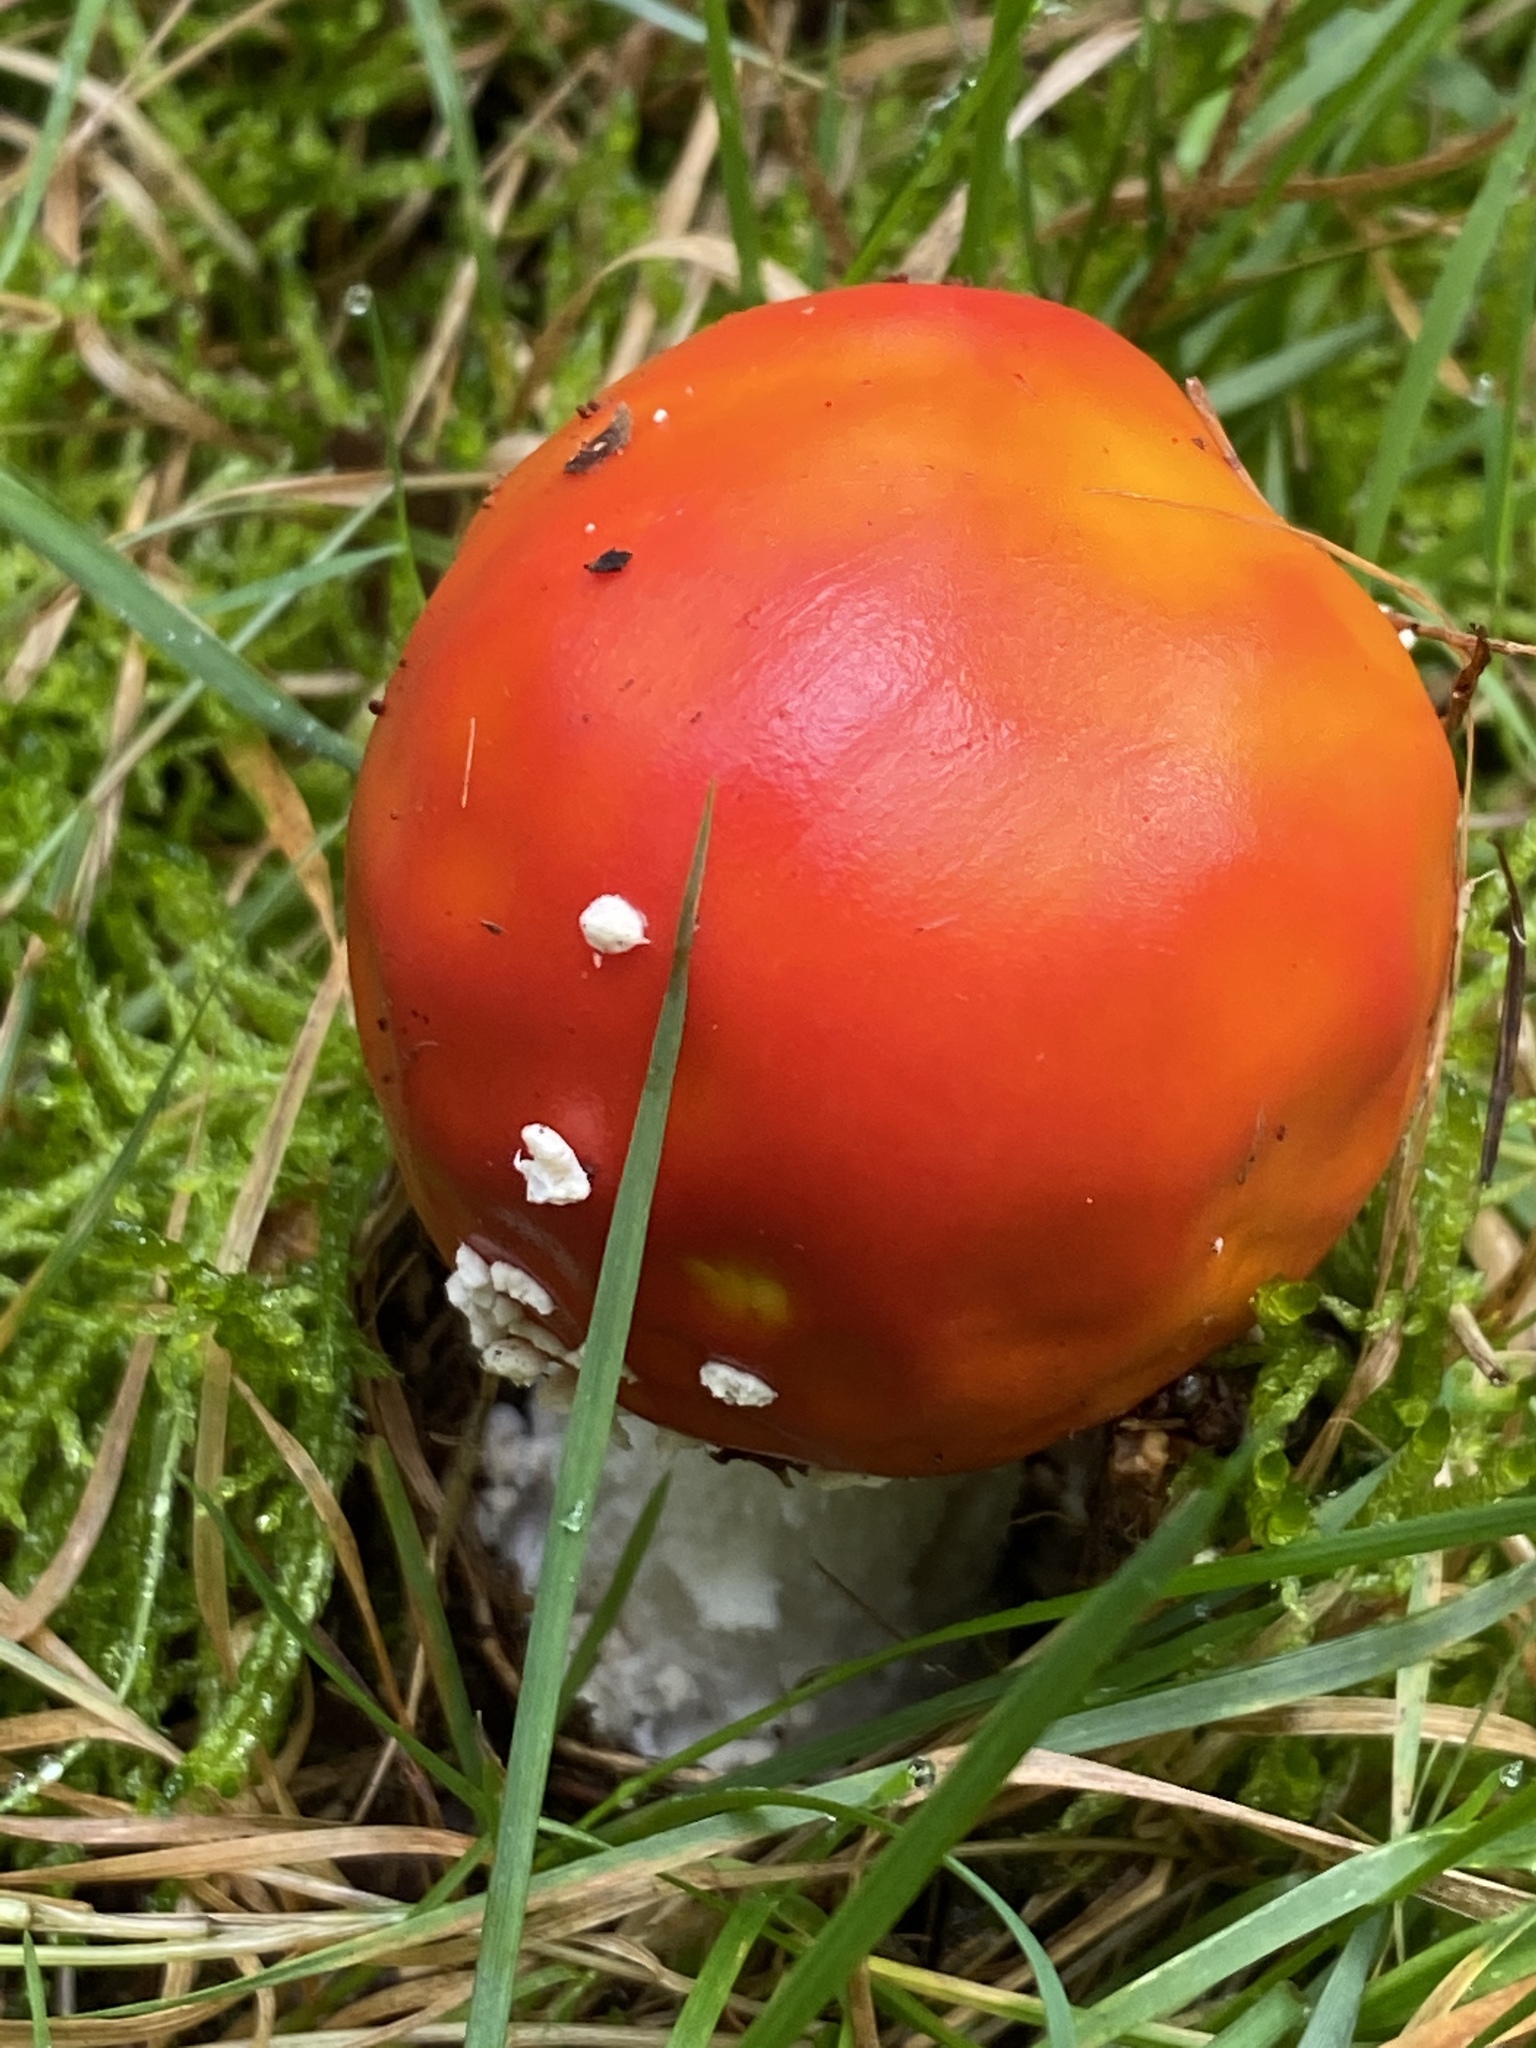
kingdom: Fungi
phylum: Basidiomycota
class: Agaricomycetes
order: Agaricales
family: Amanitaceae
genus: Amanita
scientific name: Amanita muscaria
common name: Fly agaric
